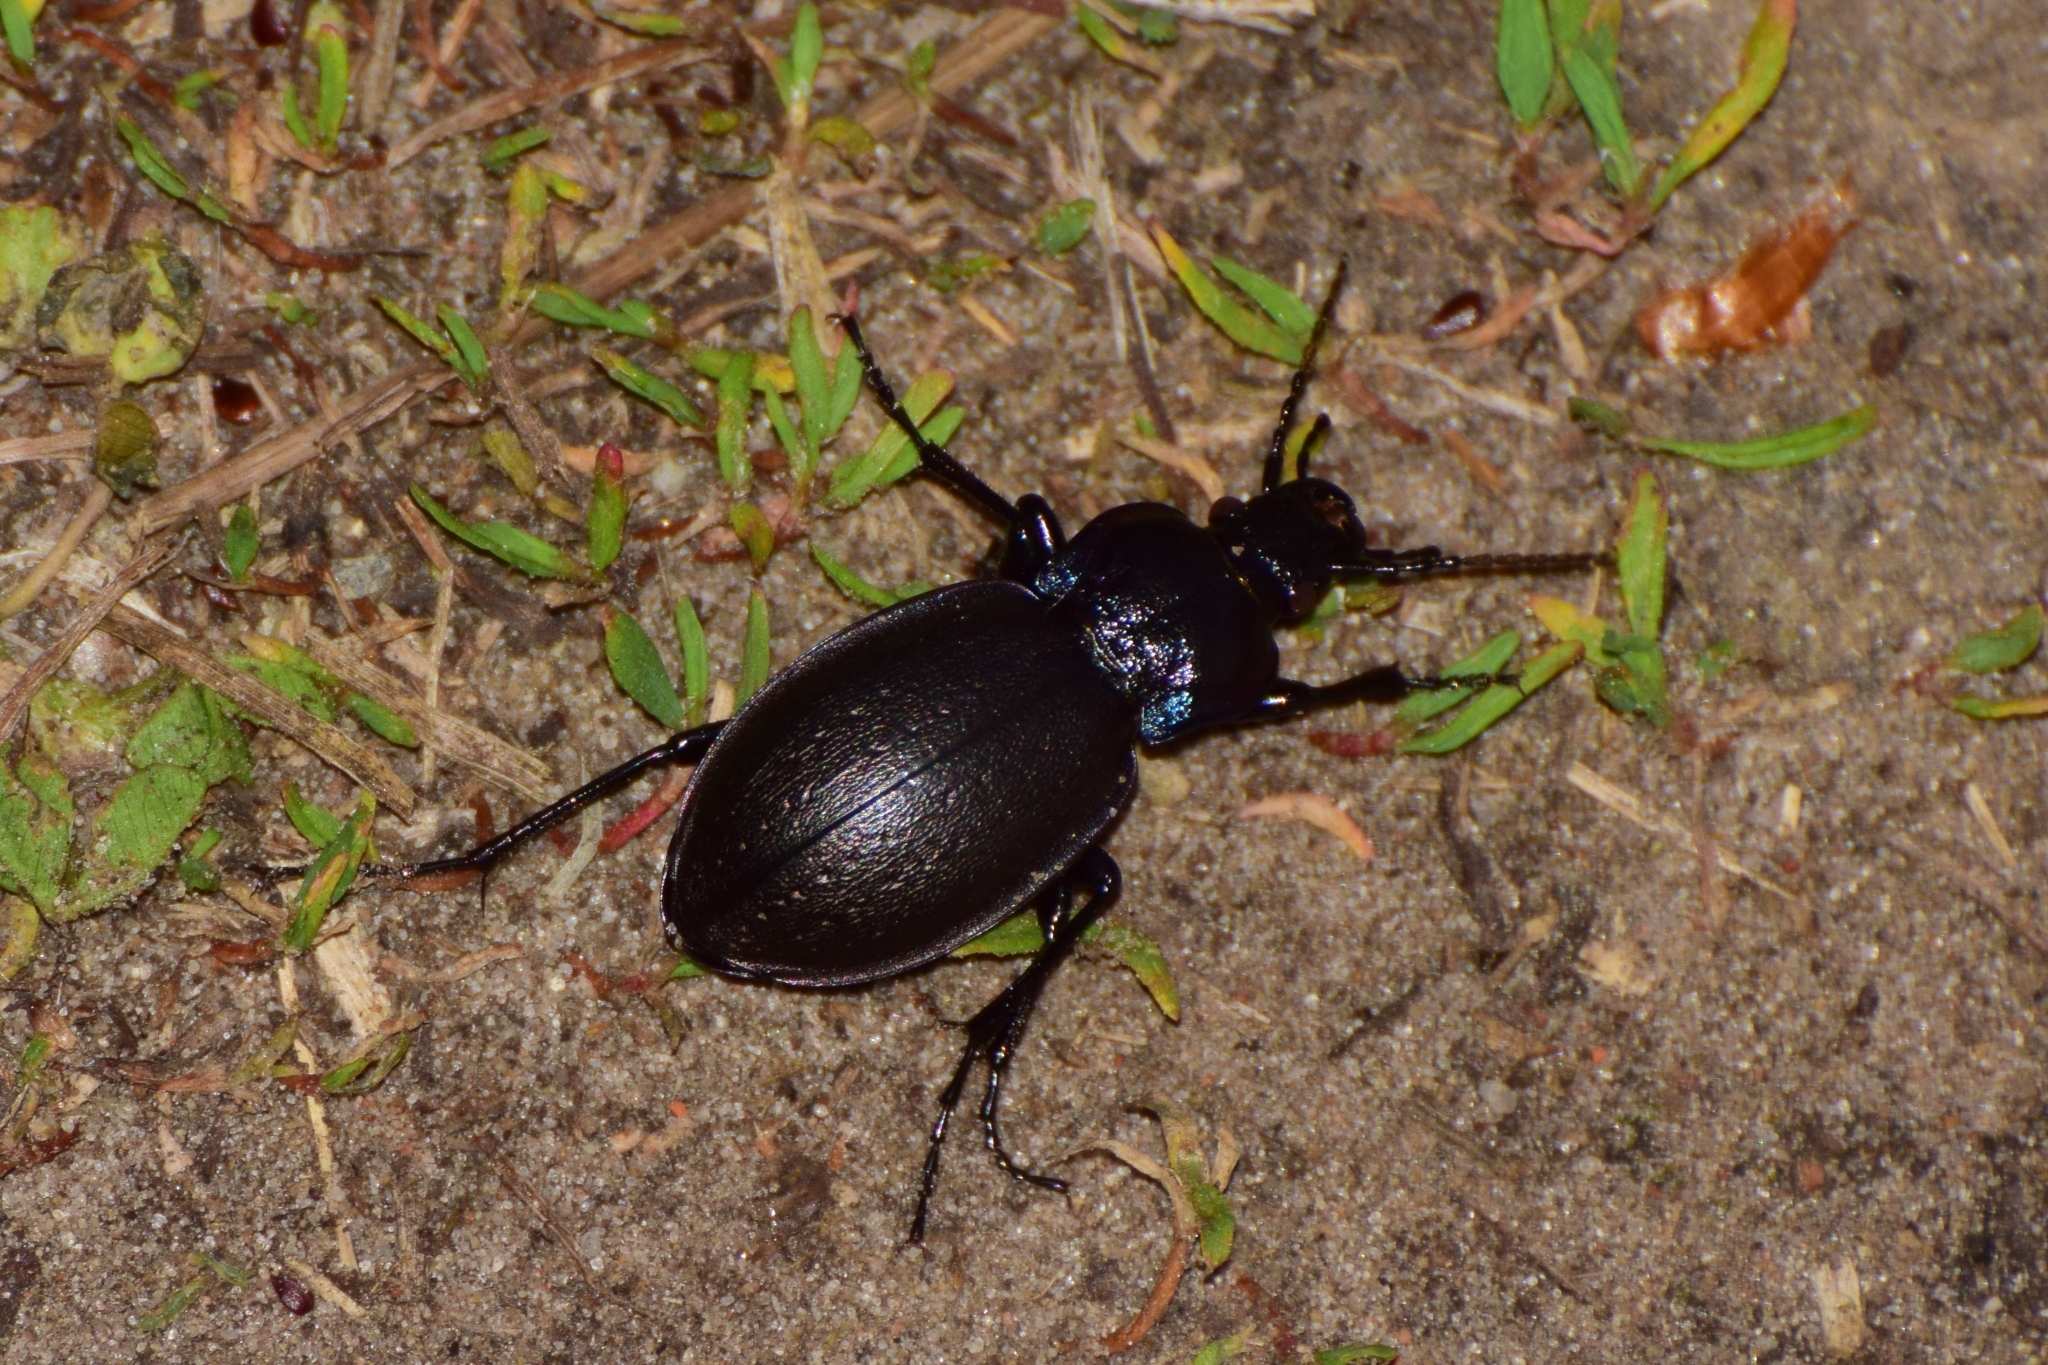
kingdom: Animalia
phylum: Arthropoda
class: Insecta
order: Coleoptera
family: Carabidae
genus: Carabus
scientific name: Carabus nemoralis
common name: European ground beetle
